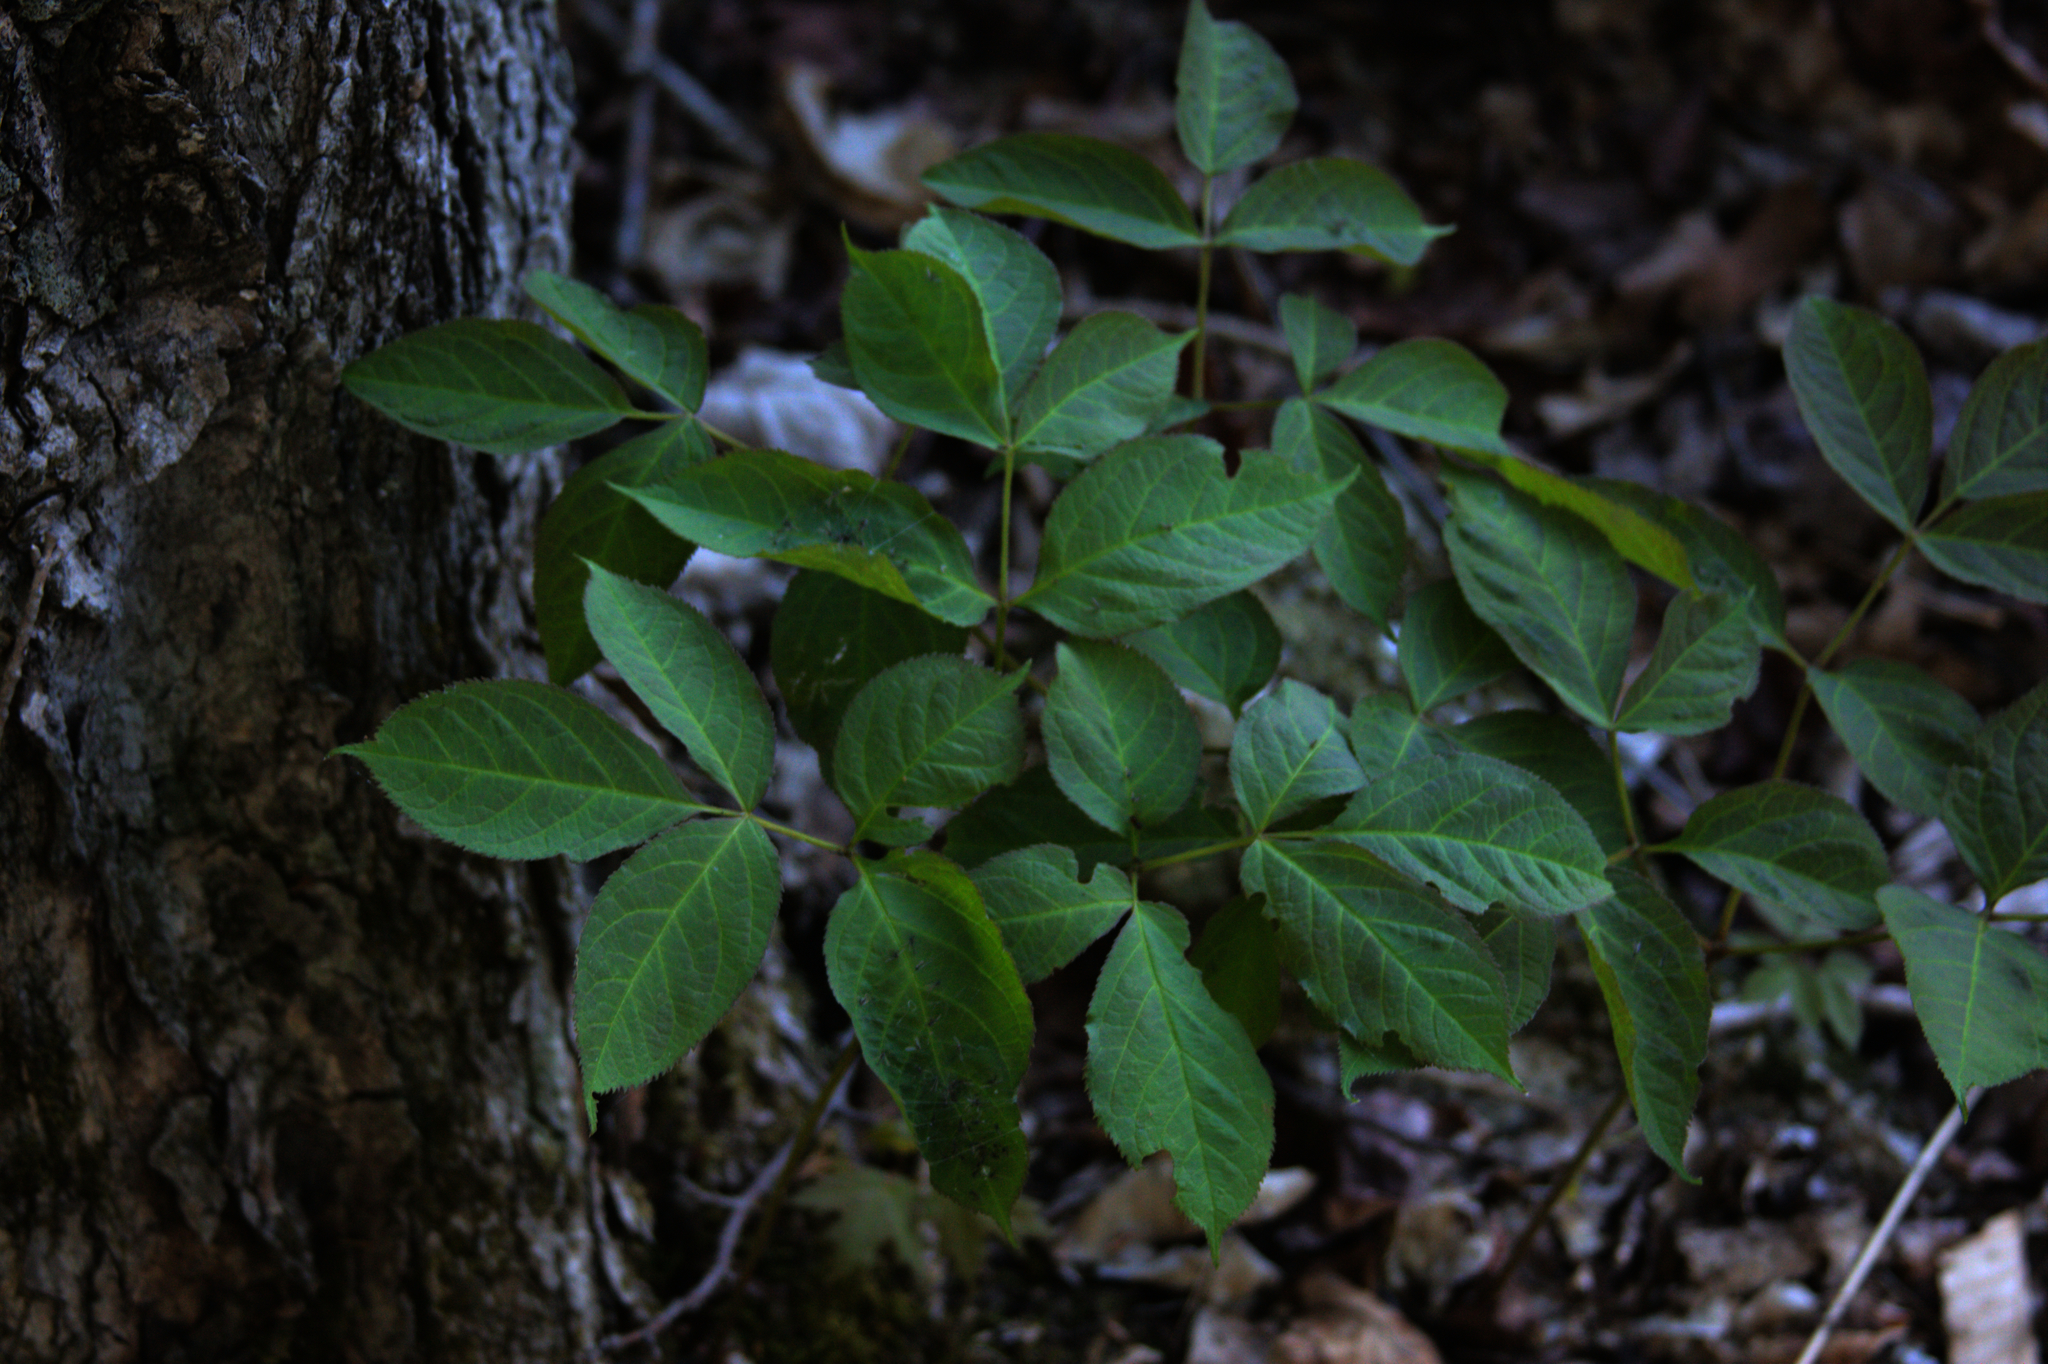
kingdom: Plantae
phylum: Tracheophyta
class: Magnoliopsida
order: Apiales
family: Araliaceae
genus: Aralia
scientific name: Aralia nudicaulis
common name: Wild sarsaparilla
